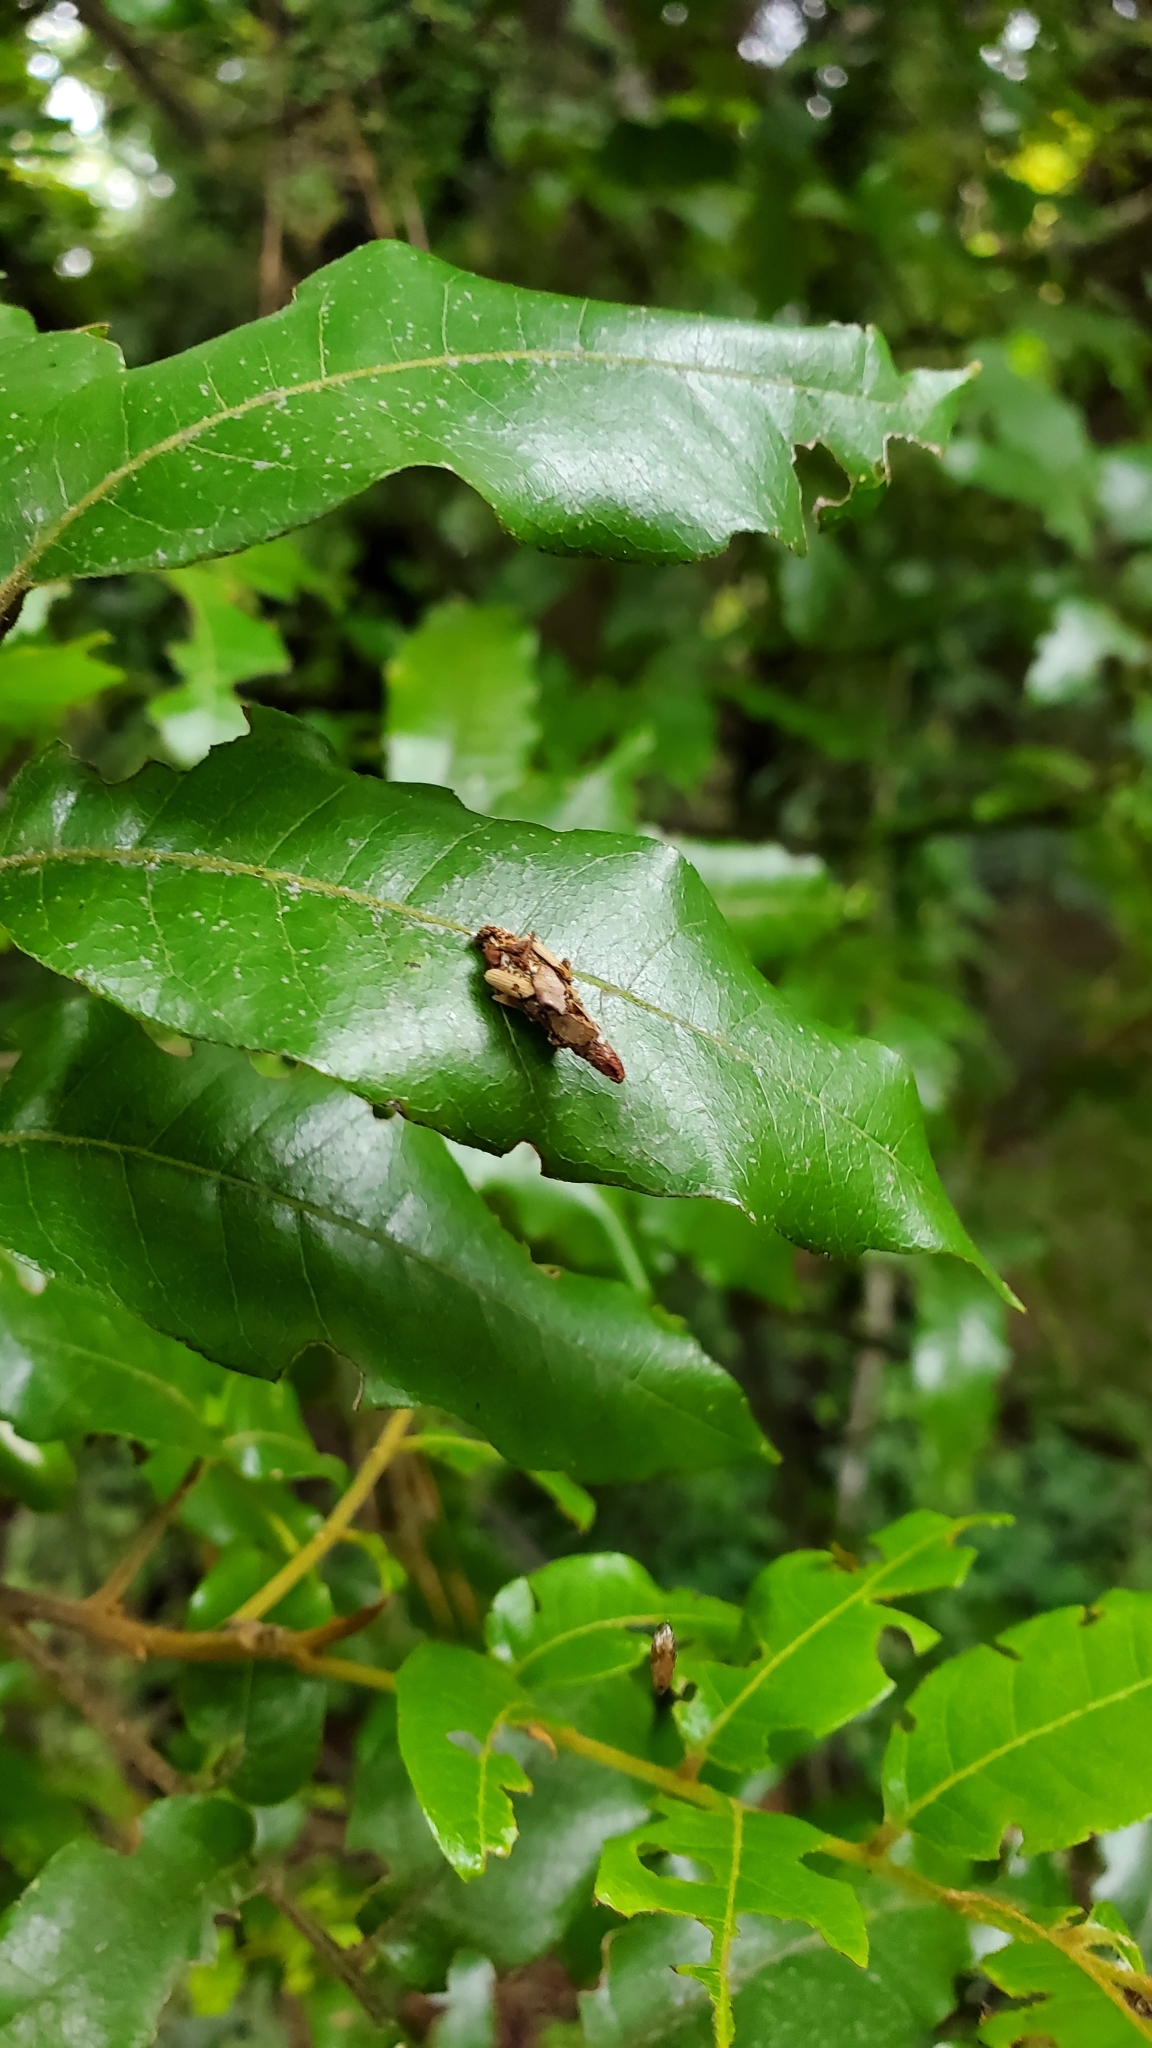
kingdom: Animalia
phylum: Arthropoda
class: Insecta
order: Lepidoptera
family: Psychidae
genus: Liothula
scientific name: Liothula omnivora
